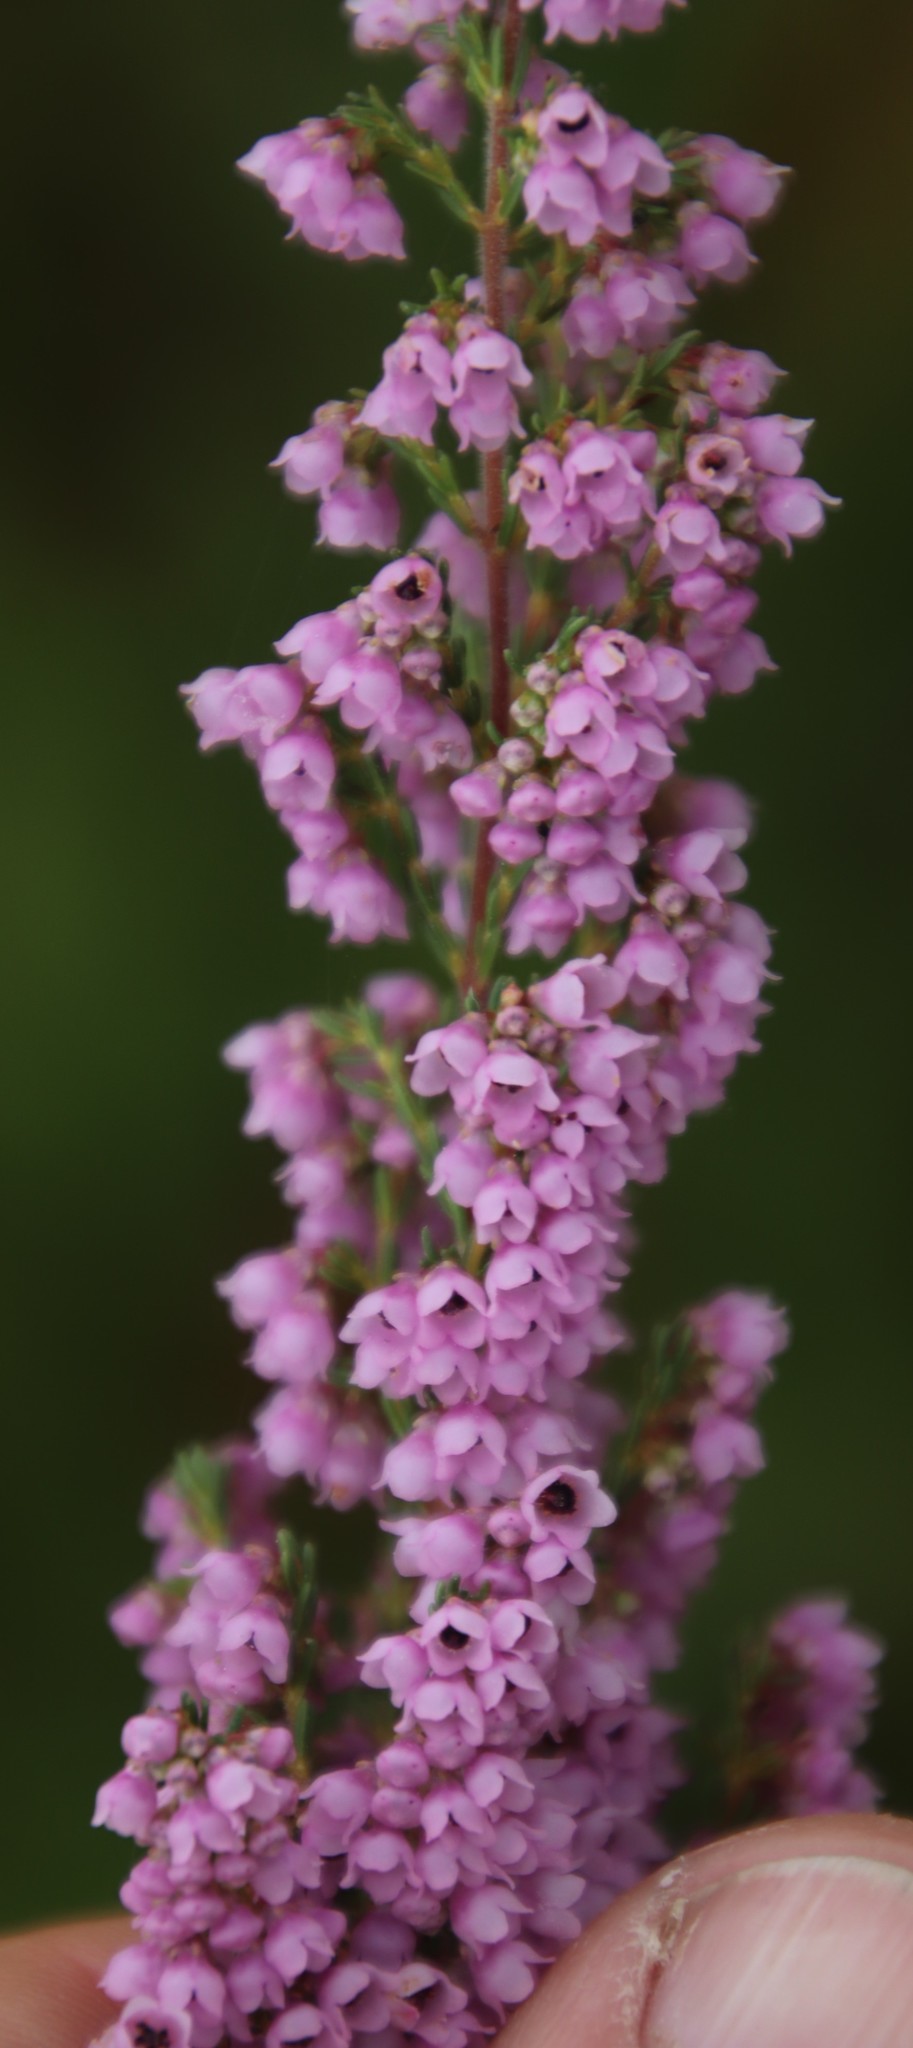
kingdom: Plantae
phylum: Tracheophyta
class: Magnoliopsida
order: Ericales
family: Ericaceae
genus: Erica
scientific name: Erica mauritanica
